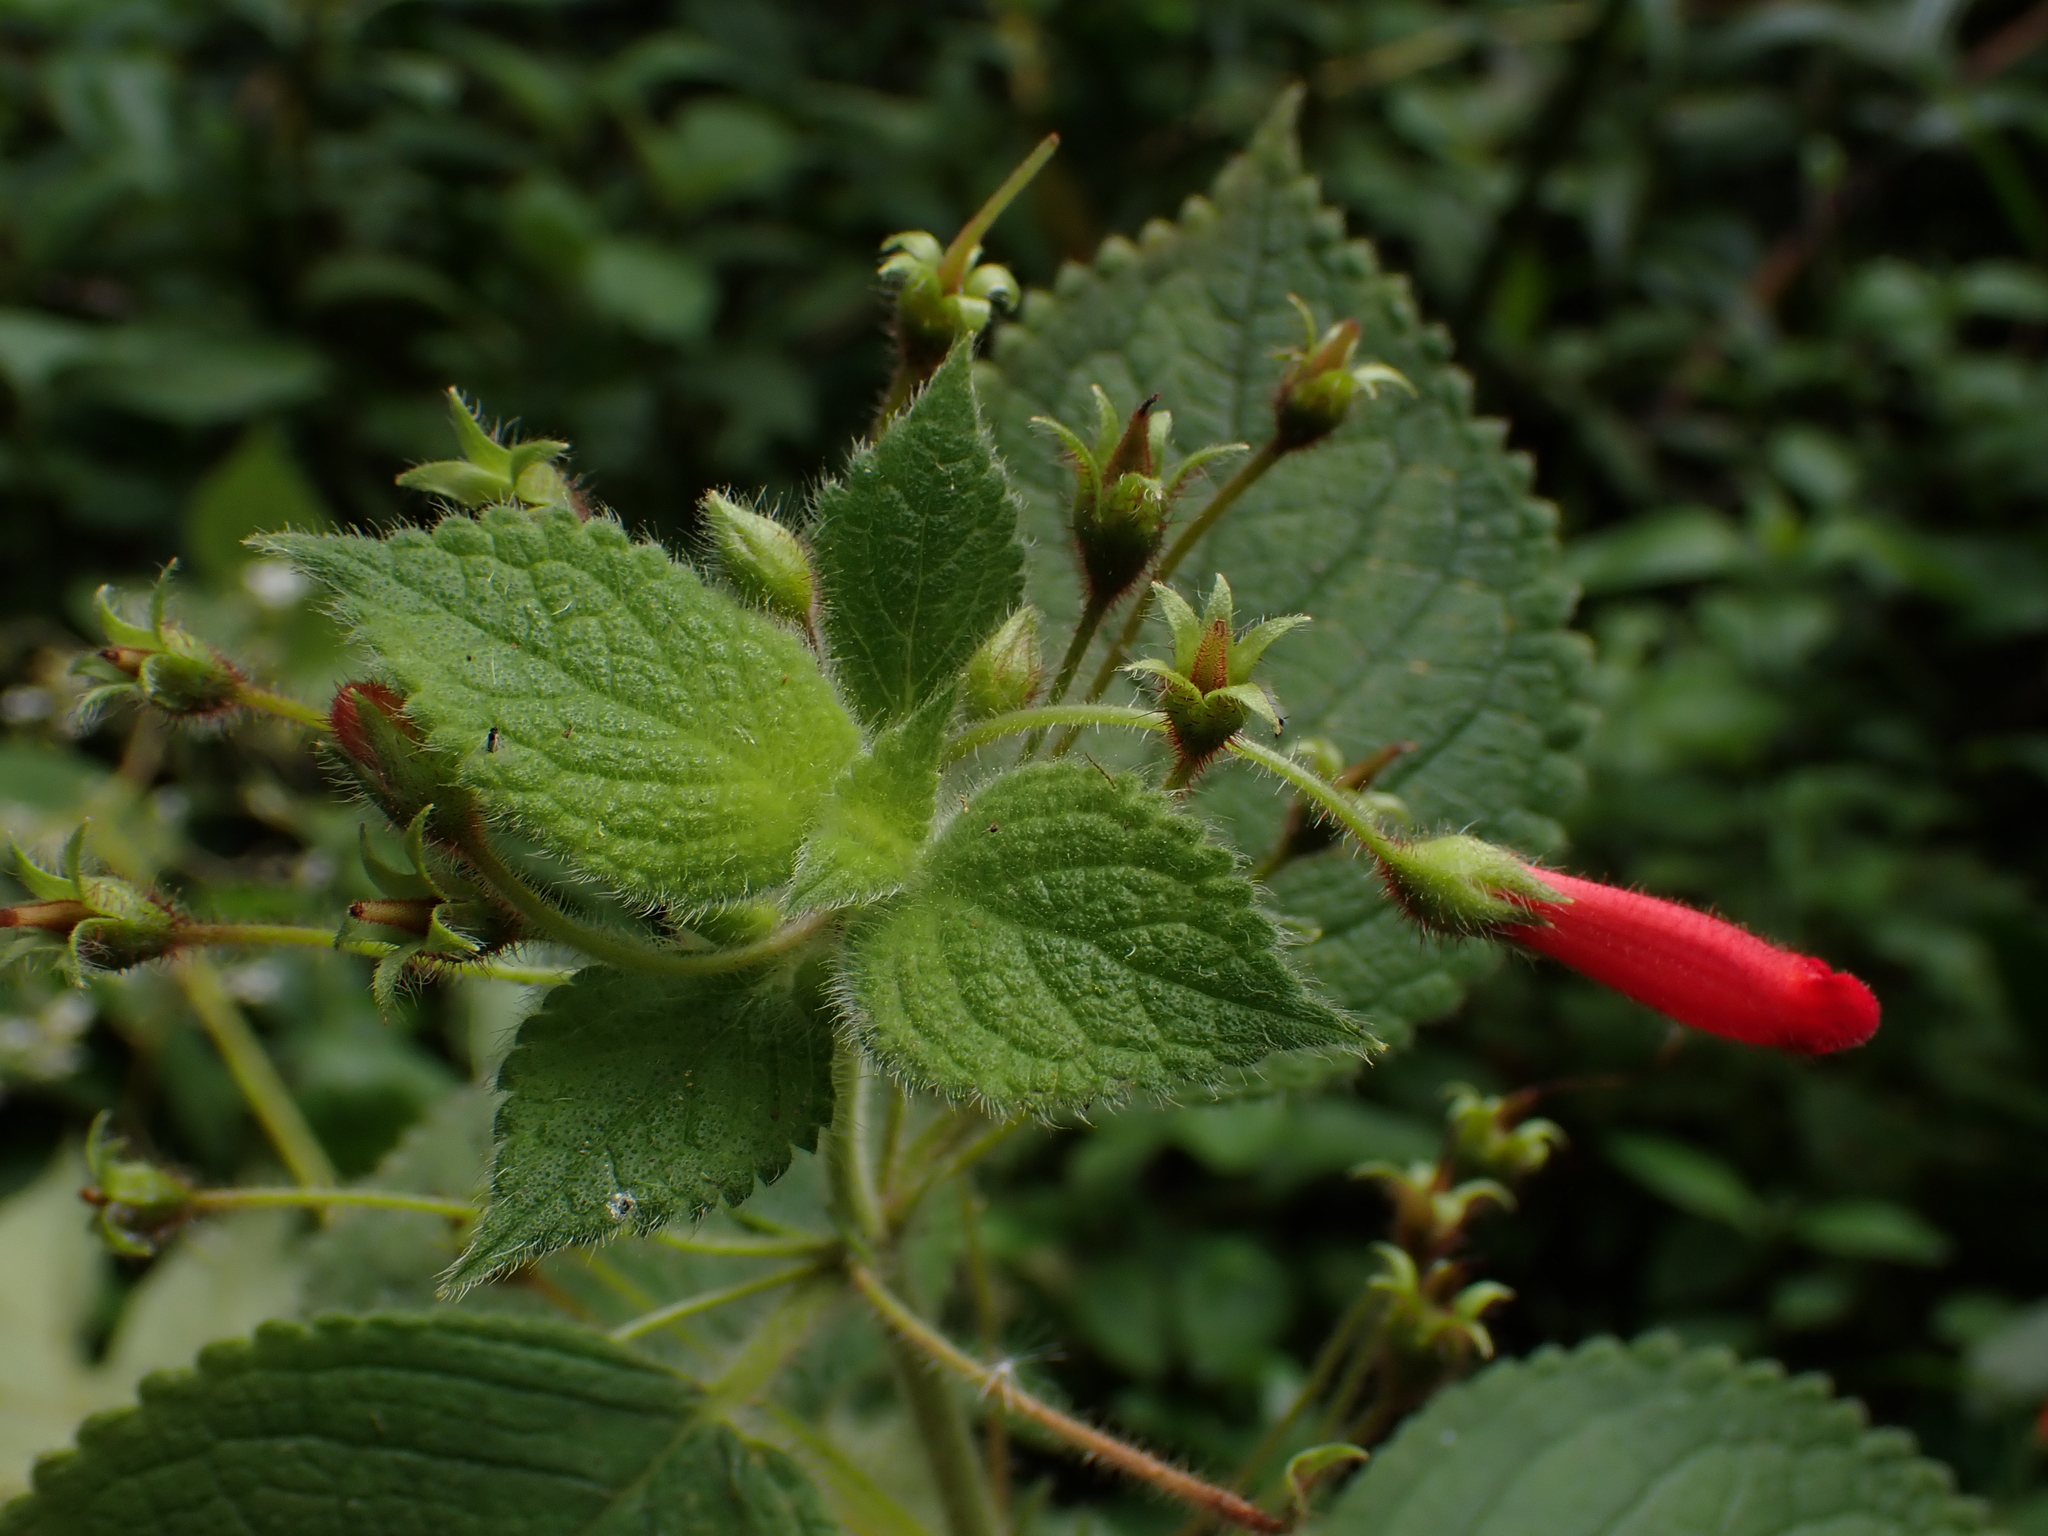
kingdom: Plantae
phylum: Tracheophyta
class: Magnoliopsida
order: Lamiales
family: Gesneriaceae
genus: Heppiella
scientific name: Heppiella ulmifolia
